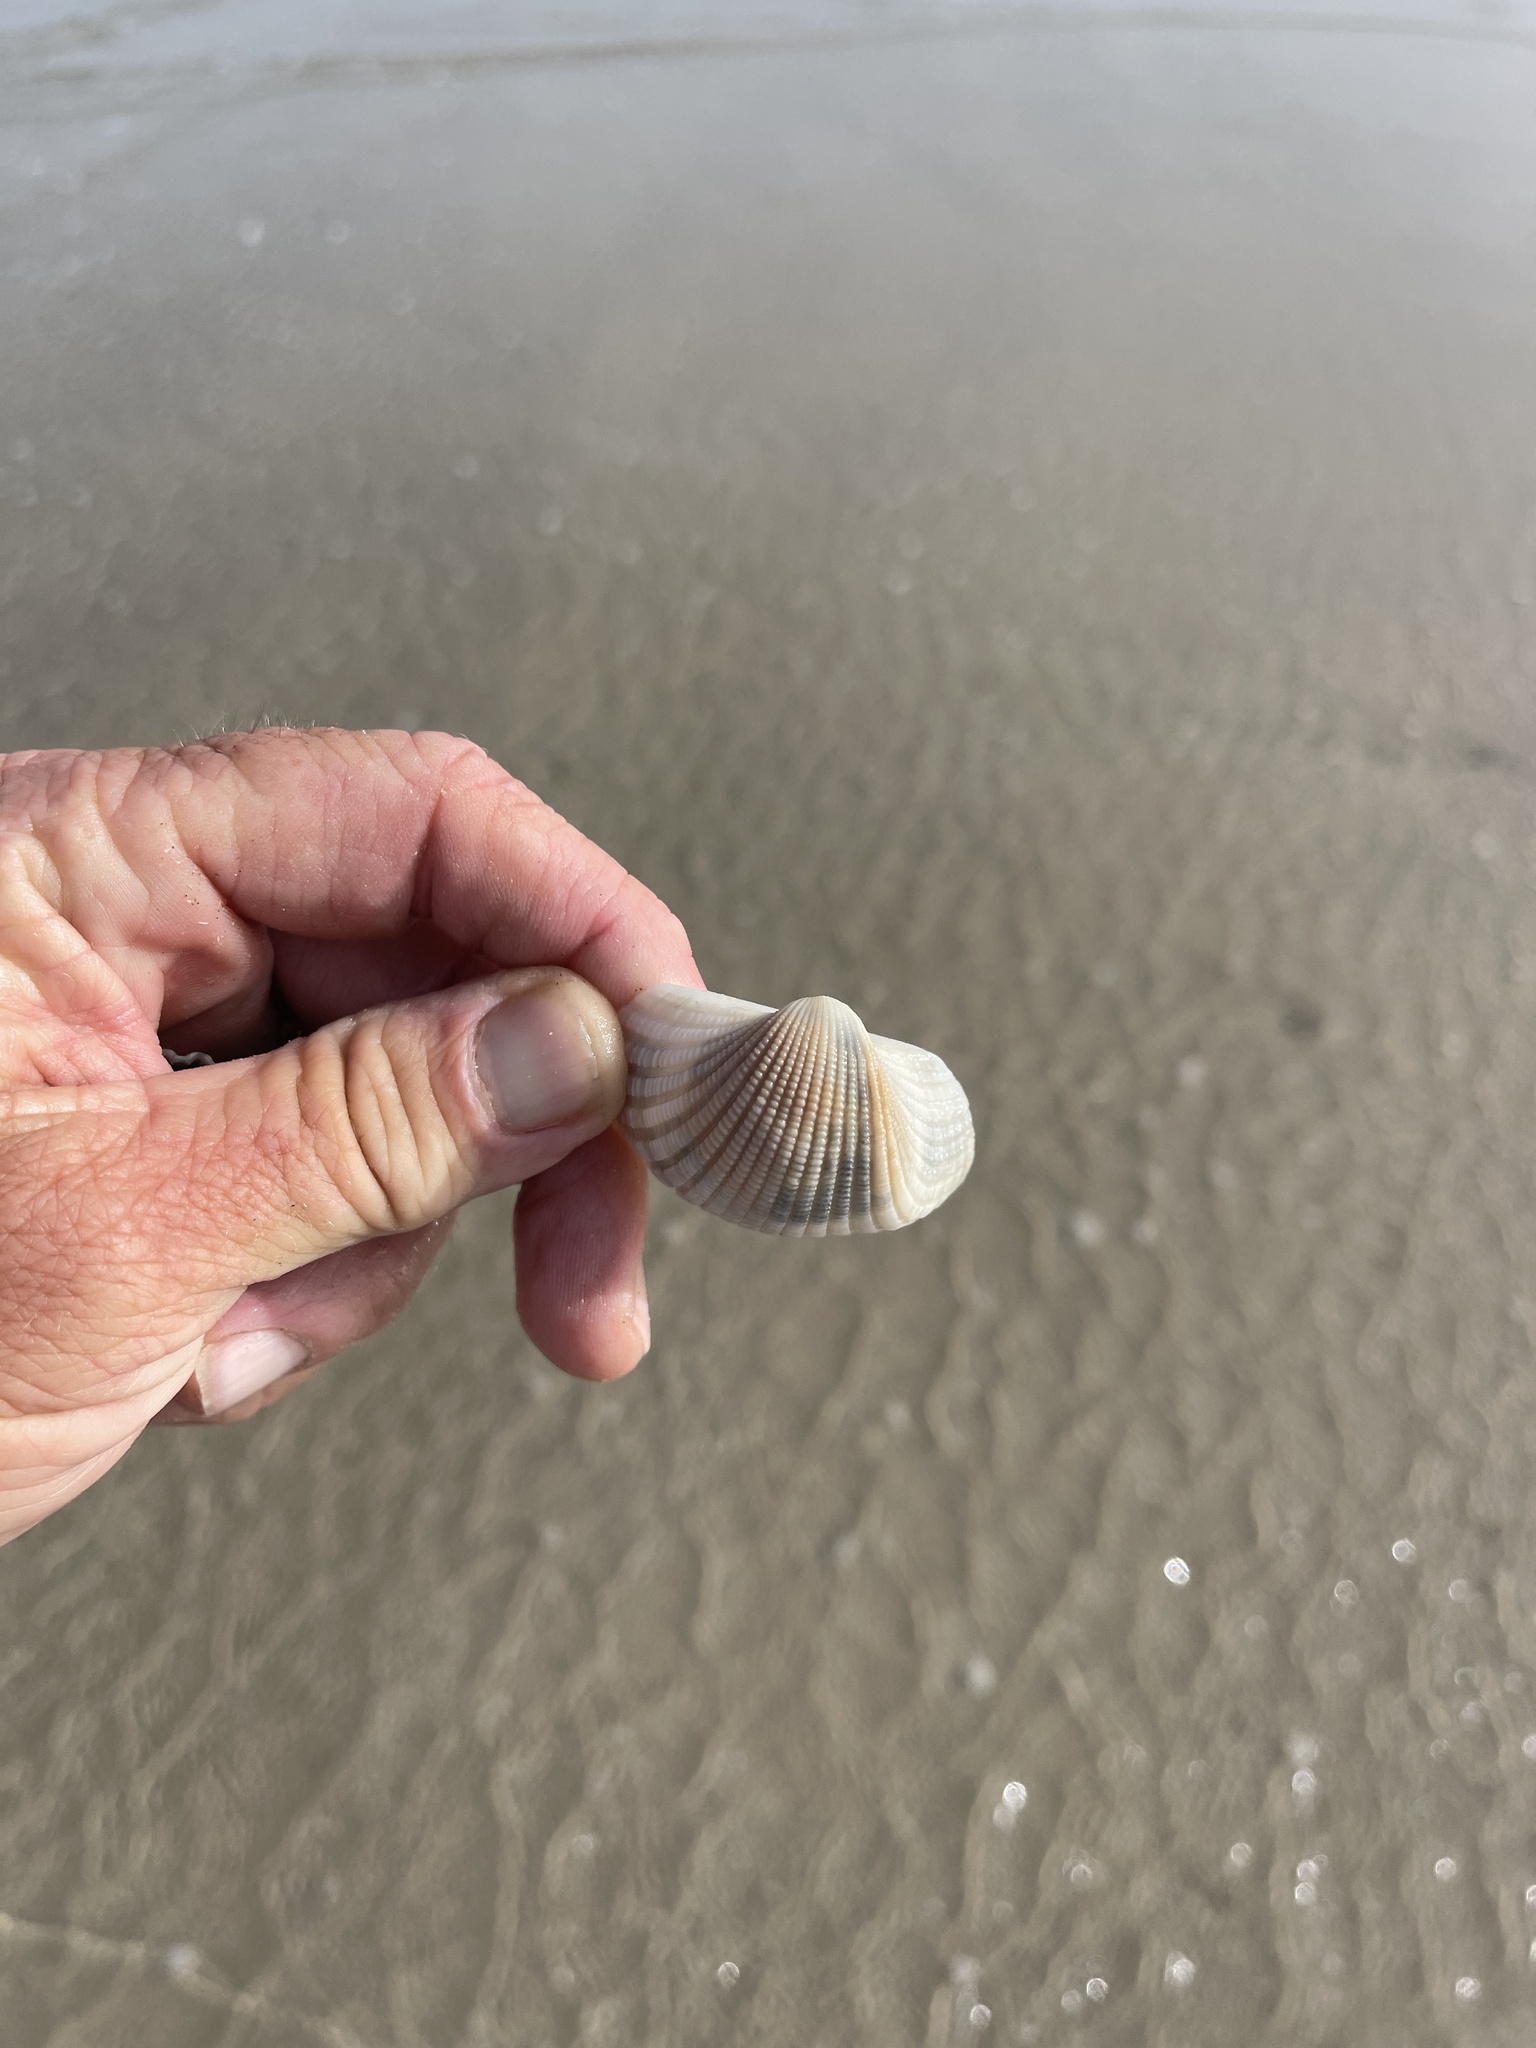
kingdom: Animalia
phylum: Mollusca
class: Bivalvia
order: Arcida
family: Arcidae
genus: Anadara
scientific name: Anadara brasiliana
